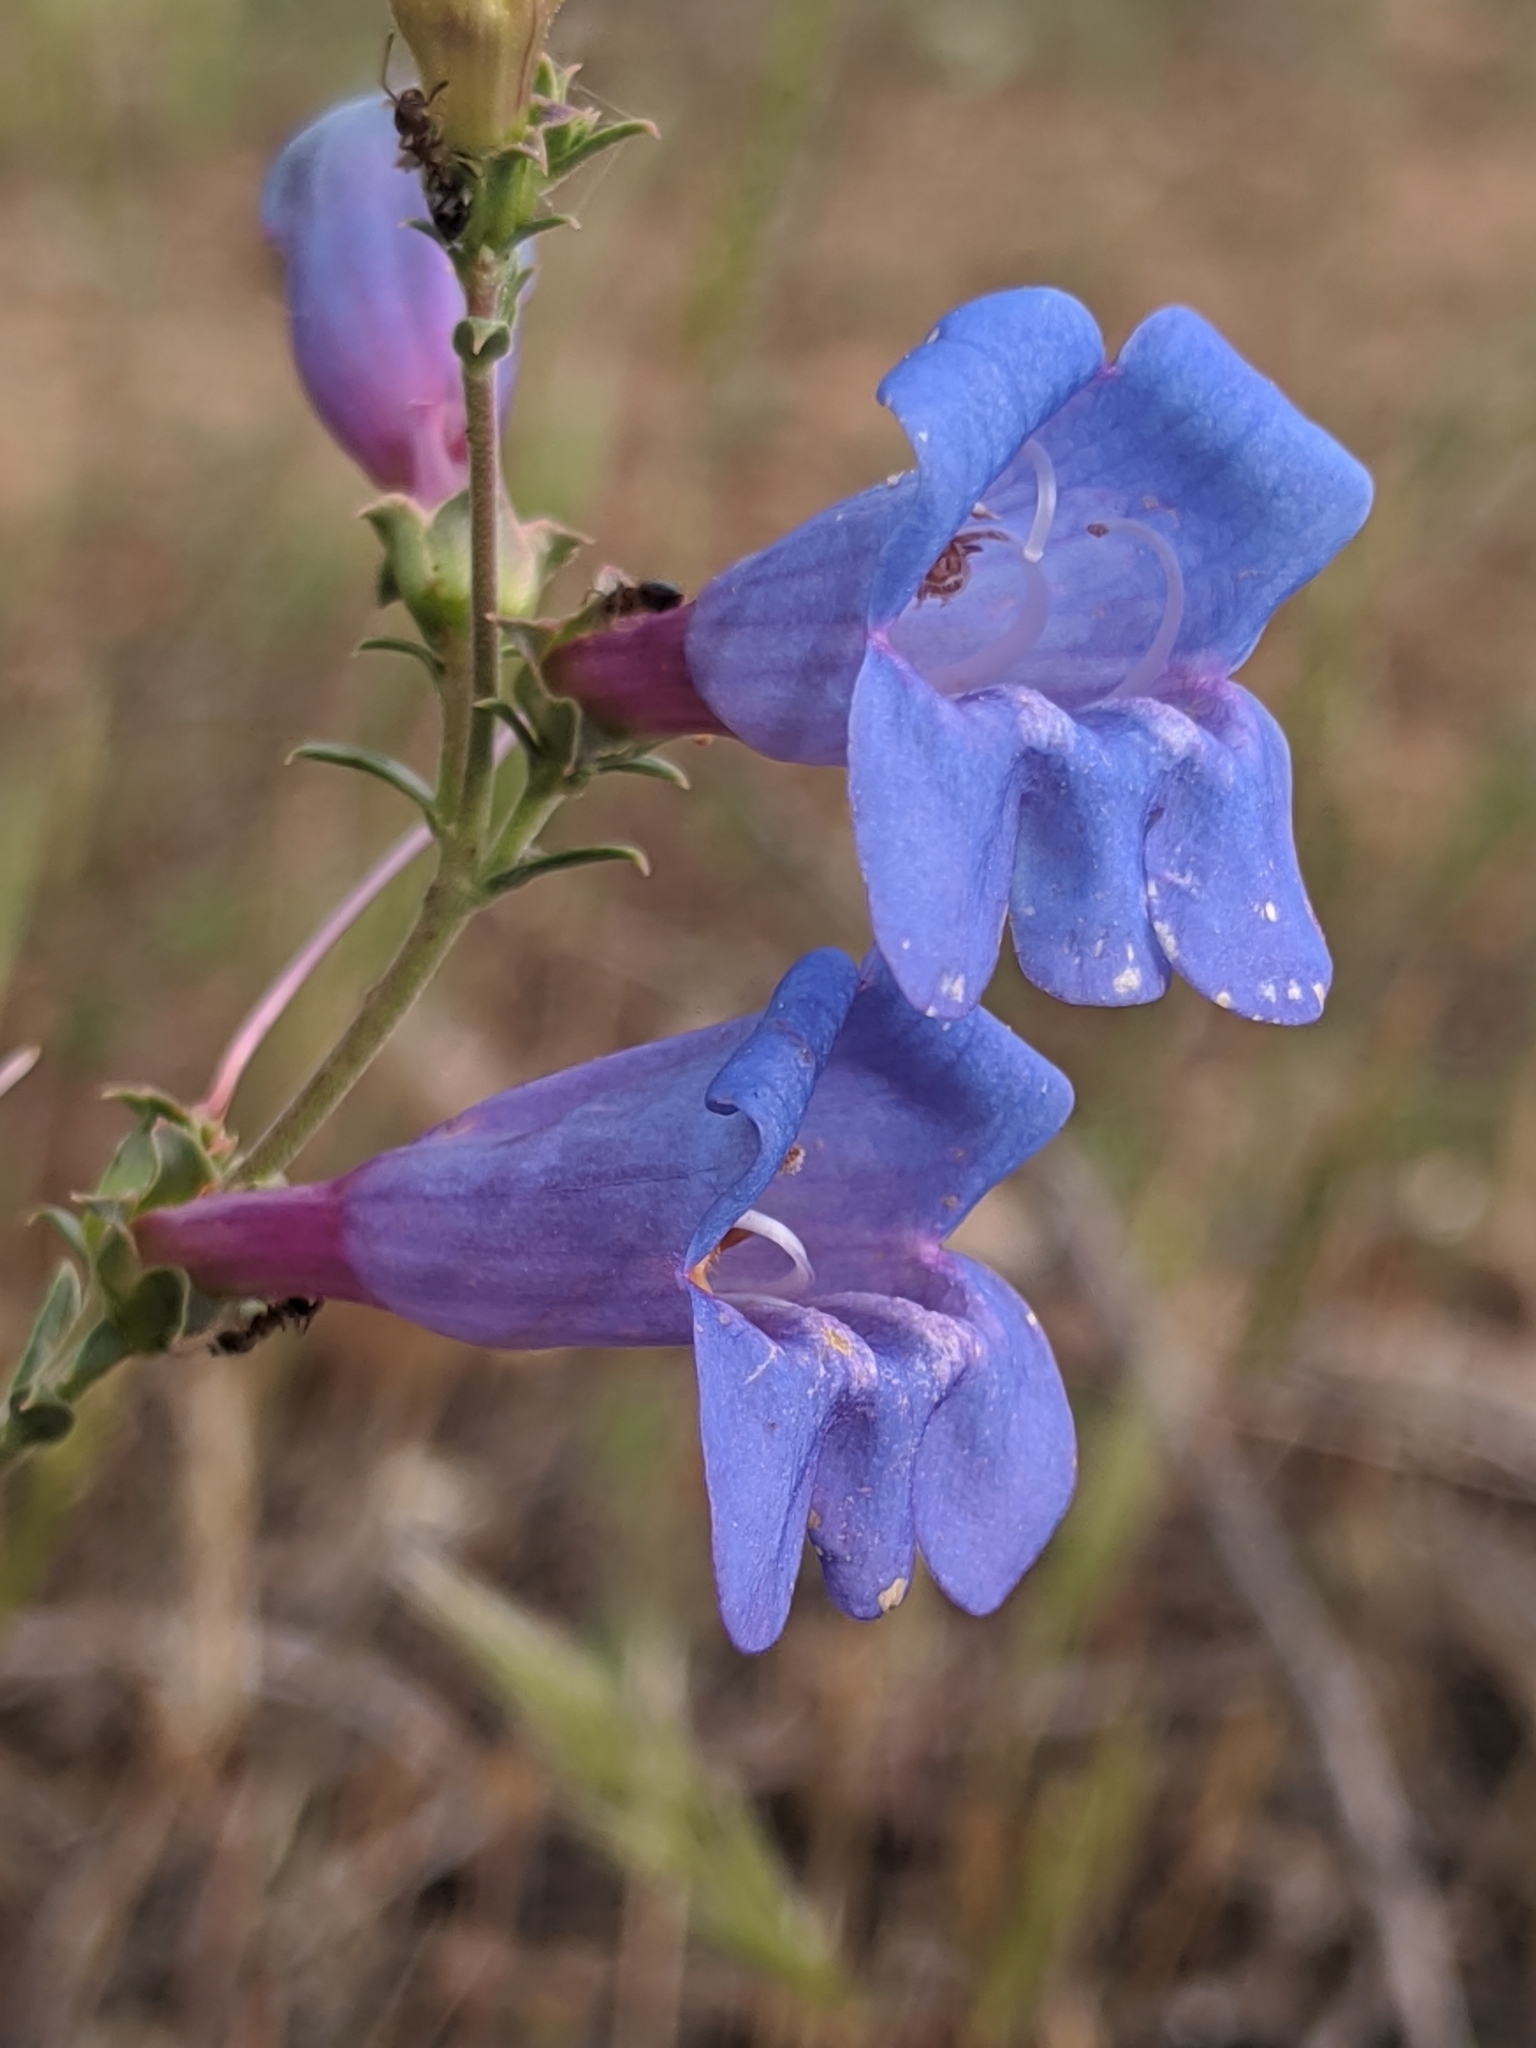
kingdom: Plantae
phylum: Tracheophyta
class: Magnoliopsida
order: Lamiales
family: Plantaginaceae
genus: Penstemon
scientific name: Penstemon heterophyllus
